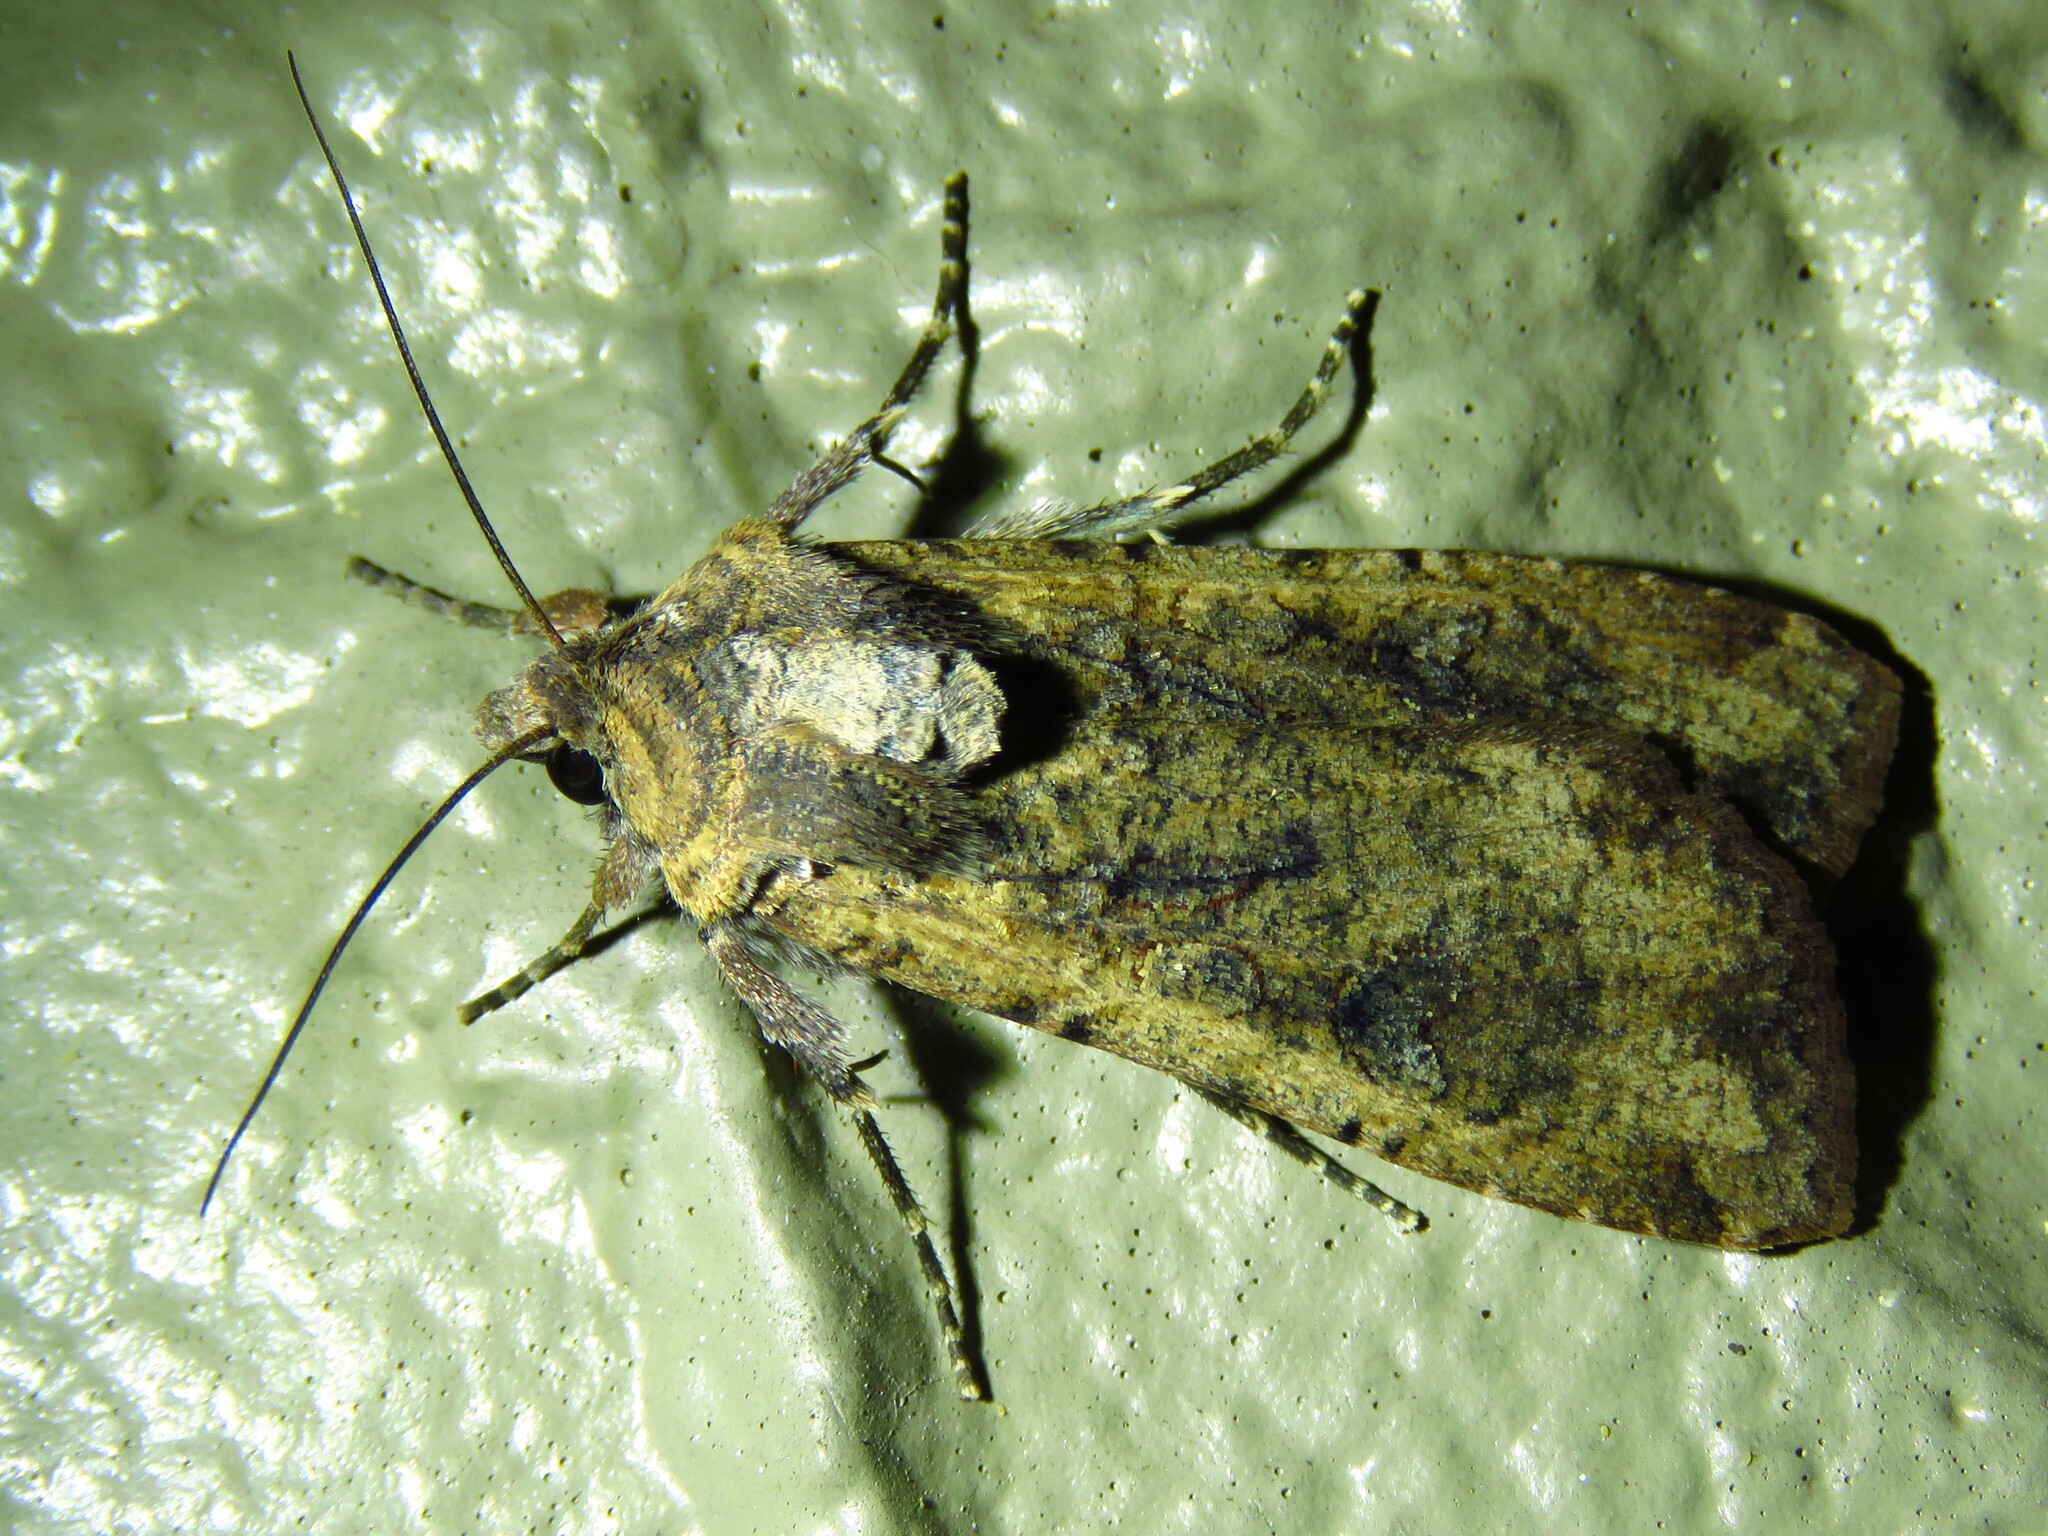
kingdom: Animalia
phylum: Arthropoda
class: Insecta
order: Lepidoptera
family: Noctuidae
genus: Peridroma
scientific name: Peridroma saucia
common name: Pearly underwing
